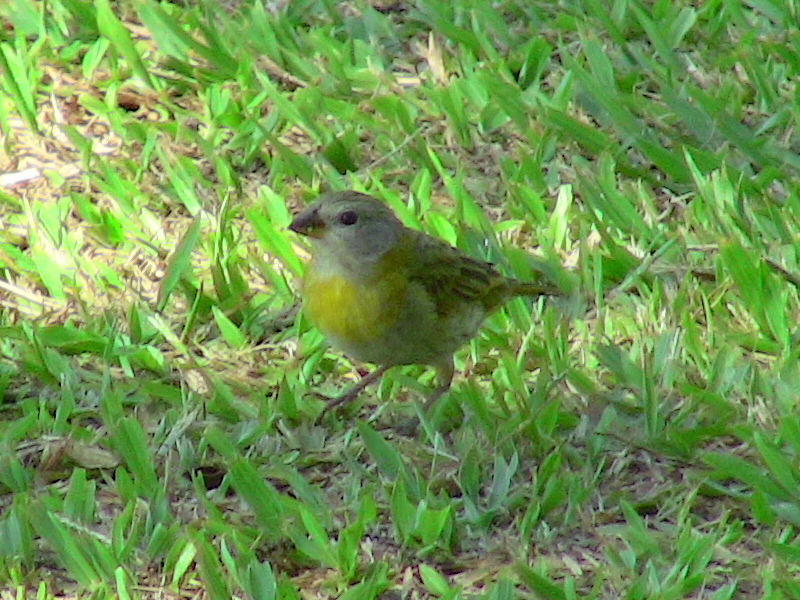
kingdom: Animalia
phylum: Chordata
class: Aves
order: Passeriformes
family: Thraupidae
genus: Sicalis
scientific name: Sicalis flaveola
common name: Saffron finch
